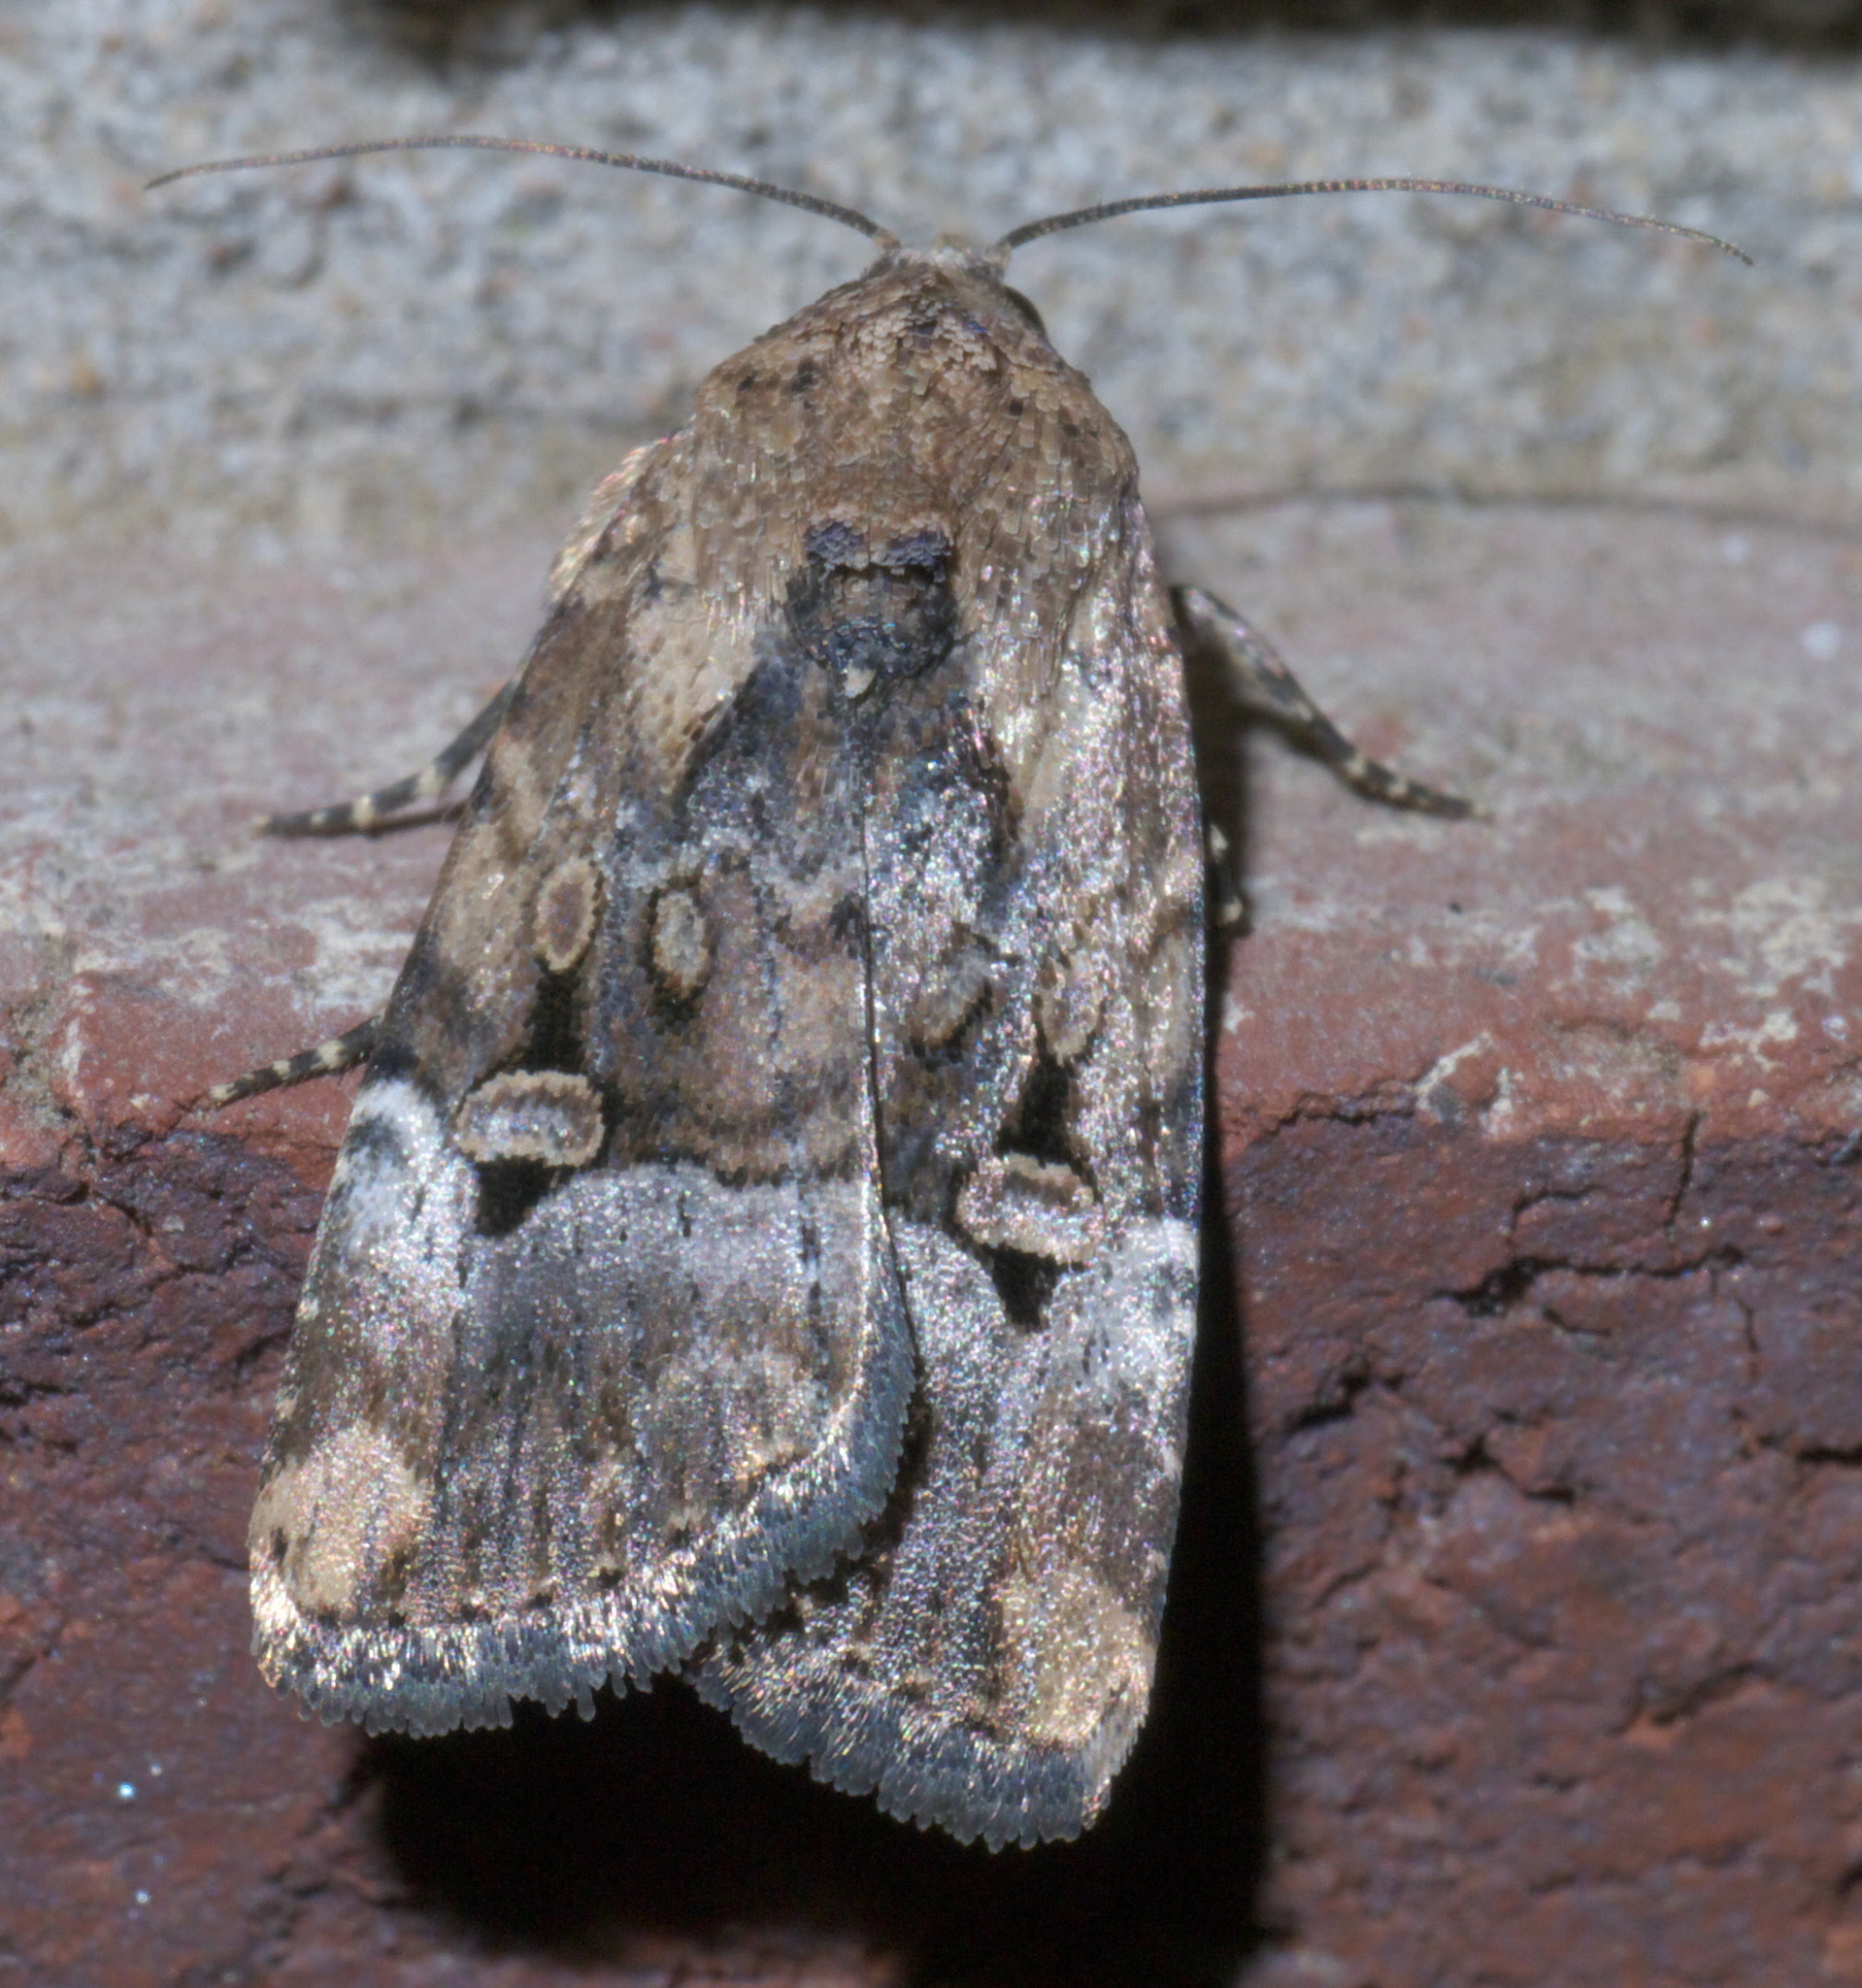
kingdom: Animalia
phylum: Arthropoda
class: Insecta
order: Lepidoptera
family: Noctuidae
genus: Elaphria
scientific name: Elaphria chalcedonia
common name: Chalcedony midget
